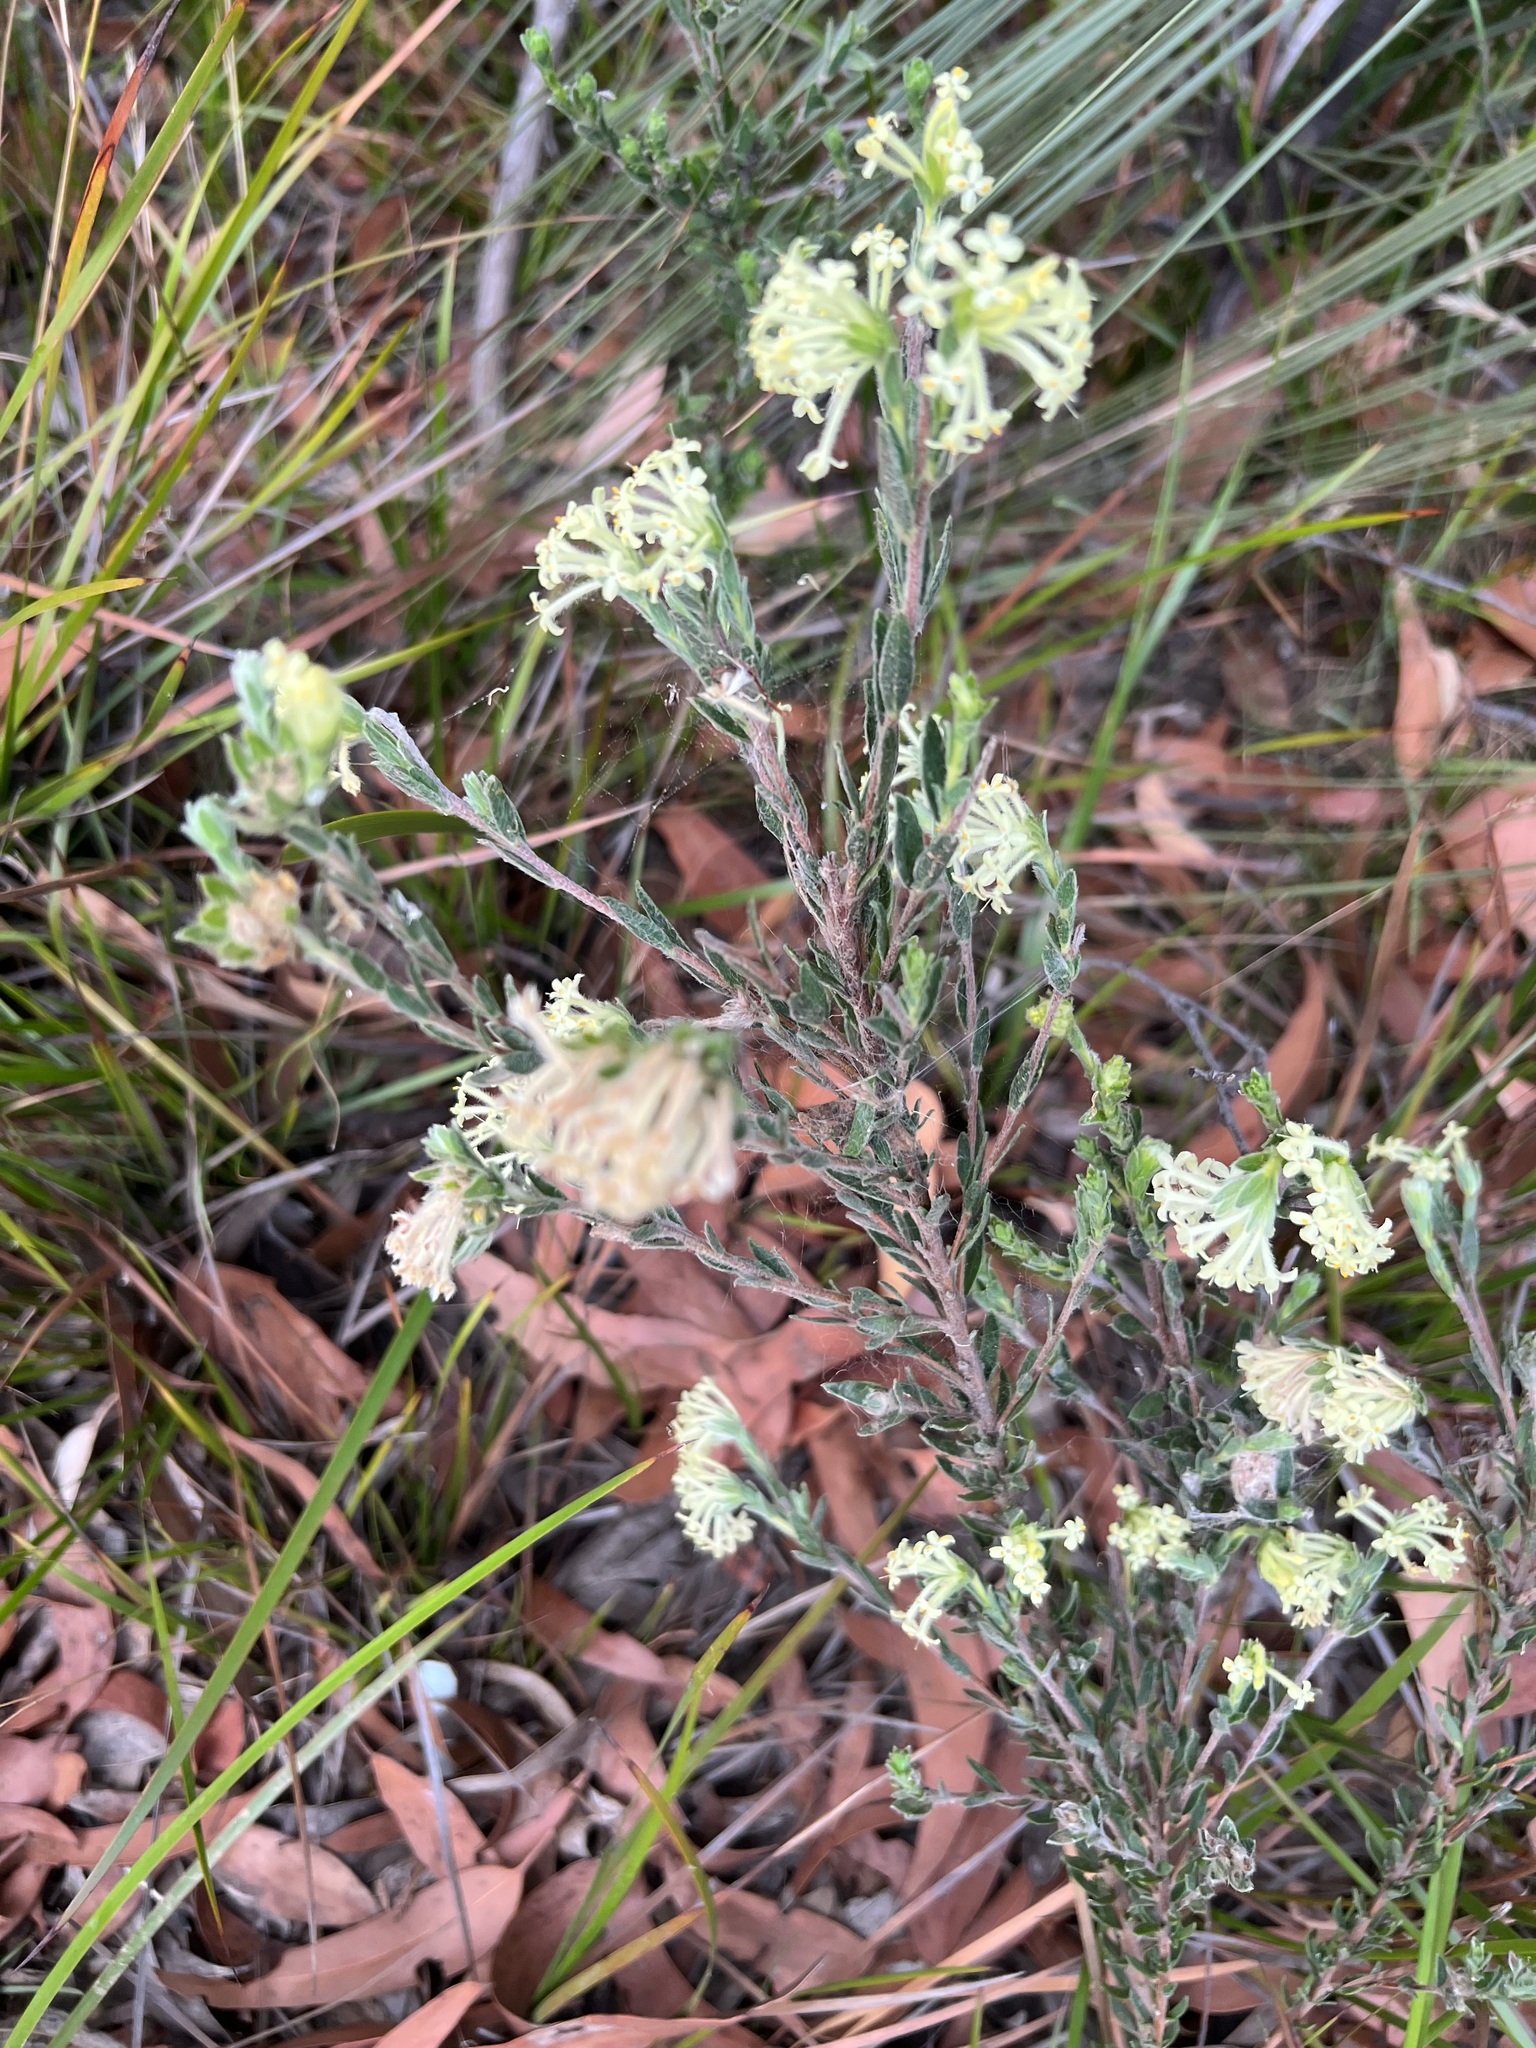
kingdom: Plantae
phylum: Tracheophyta
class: Magnoliopsida
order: Malvales
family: Thymelaeaceae
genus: Pimelea
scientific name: Pimelea octophylla
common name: Woolly riceflower
